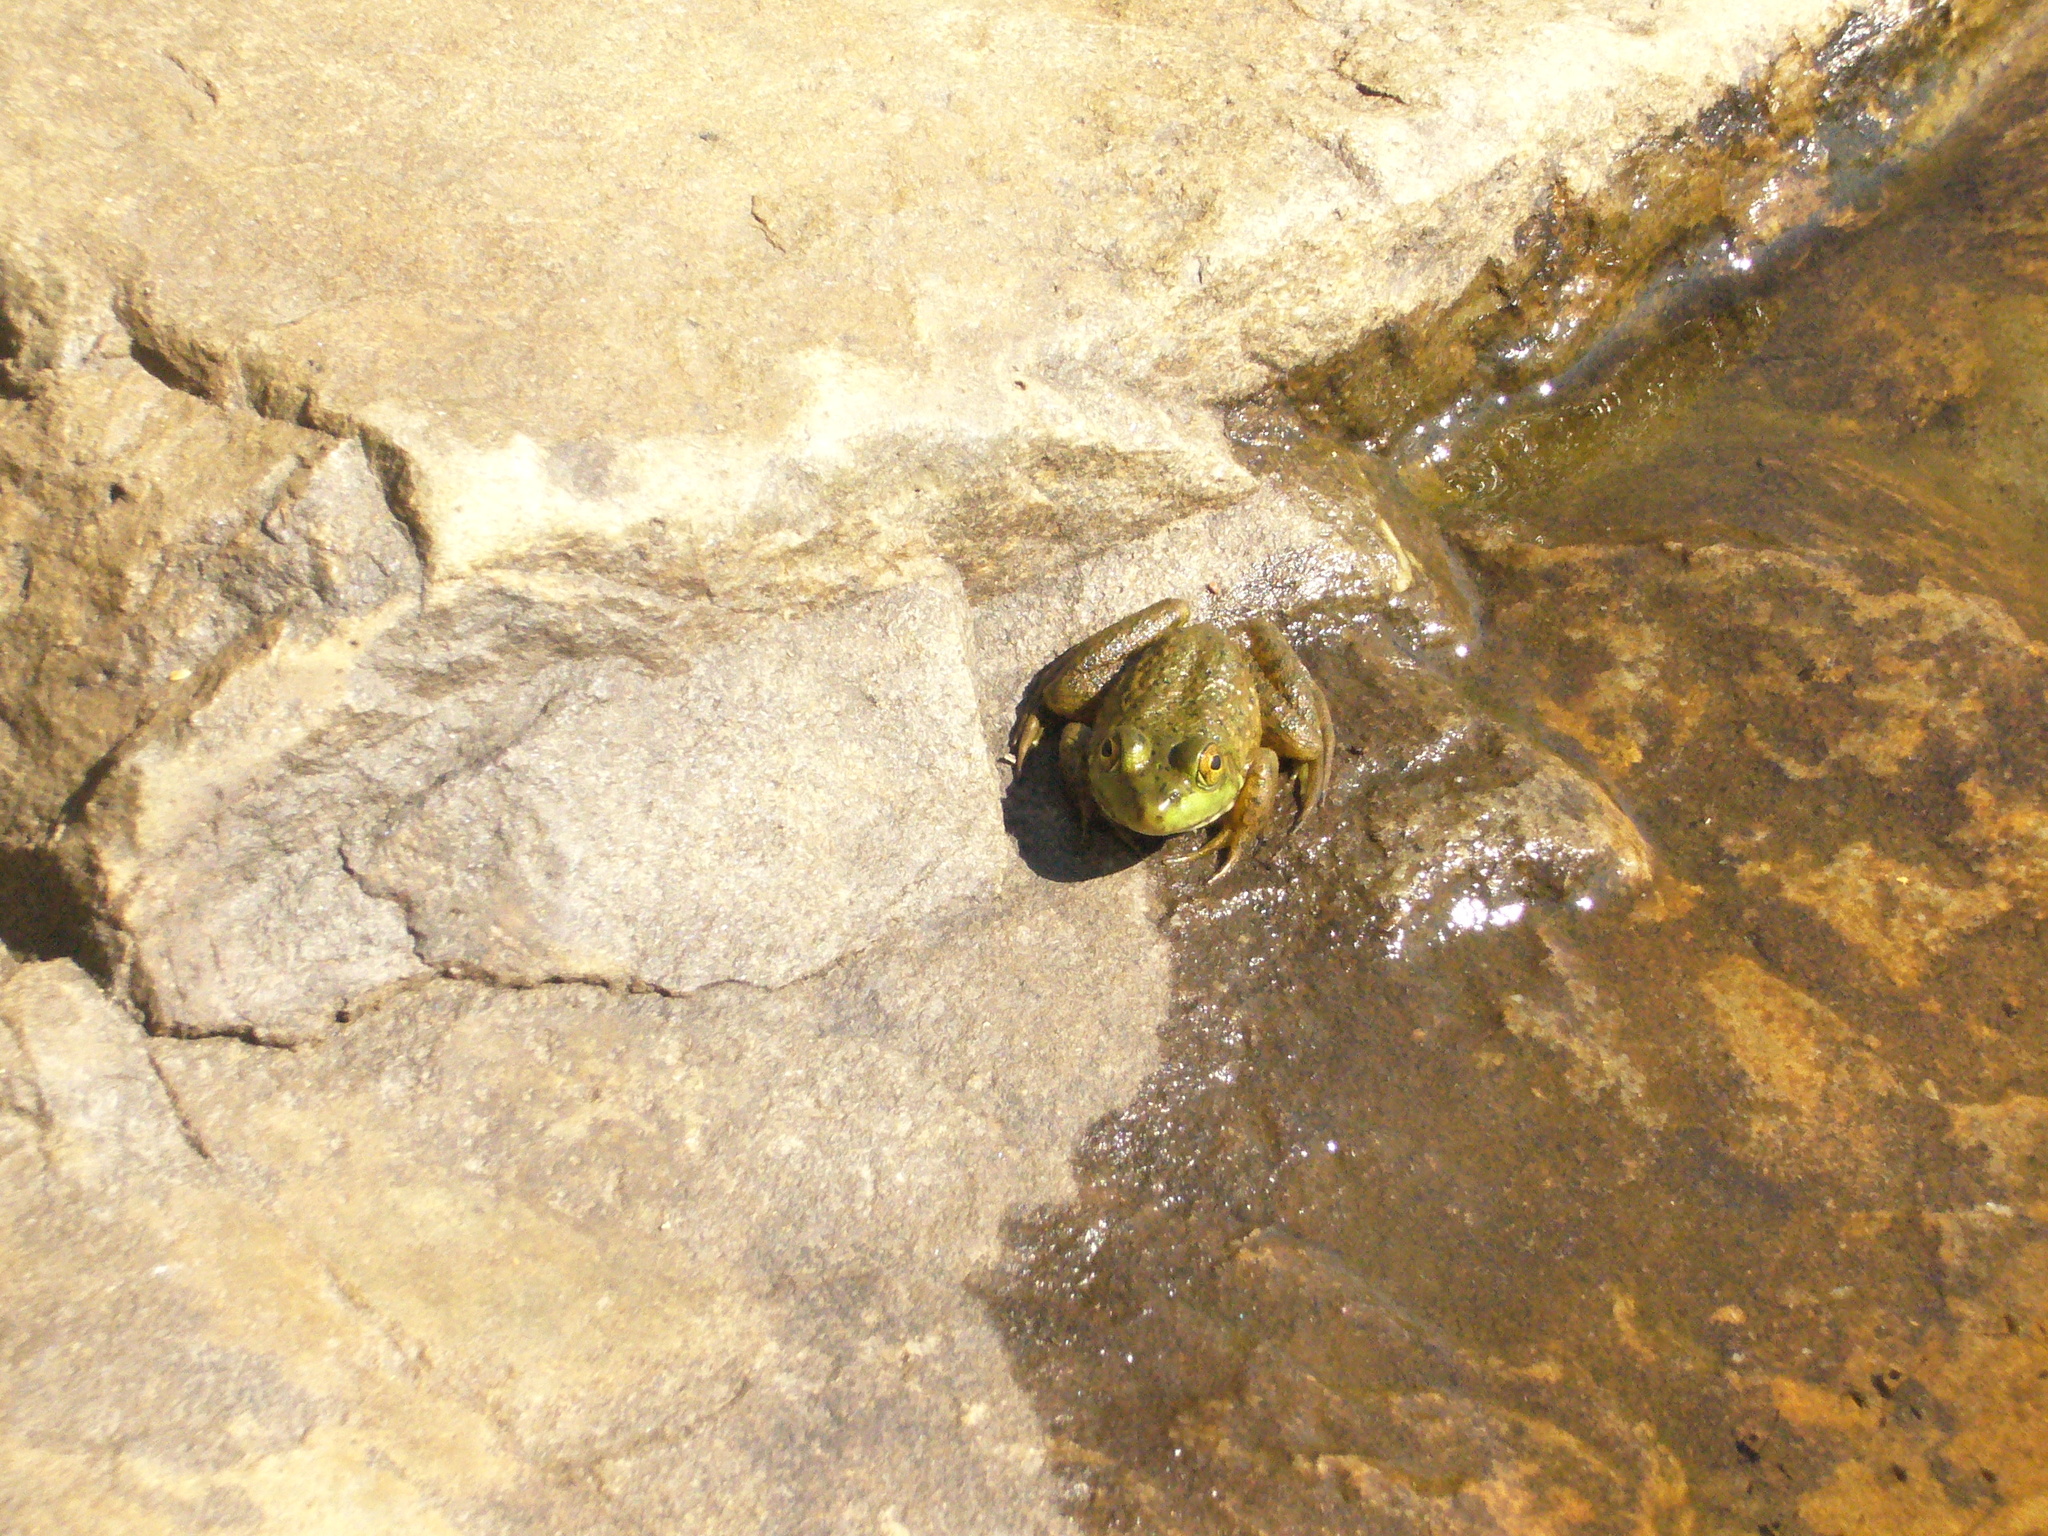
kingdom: Animalia
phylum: Chordata
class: Amphibia
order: Anura
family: Ranidae
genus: Lithobates
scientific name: Lithobates catesbeianus
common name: American bullfrog
